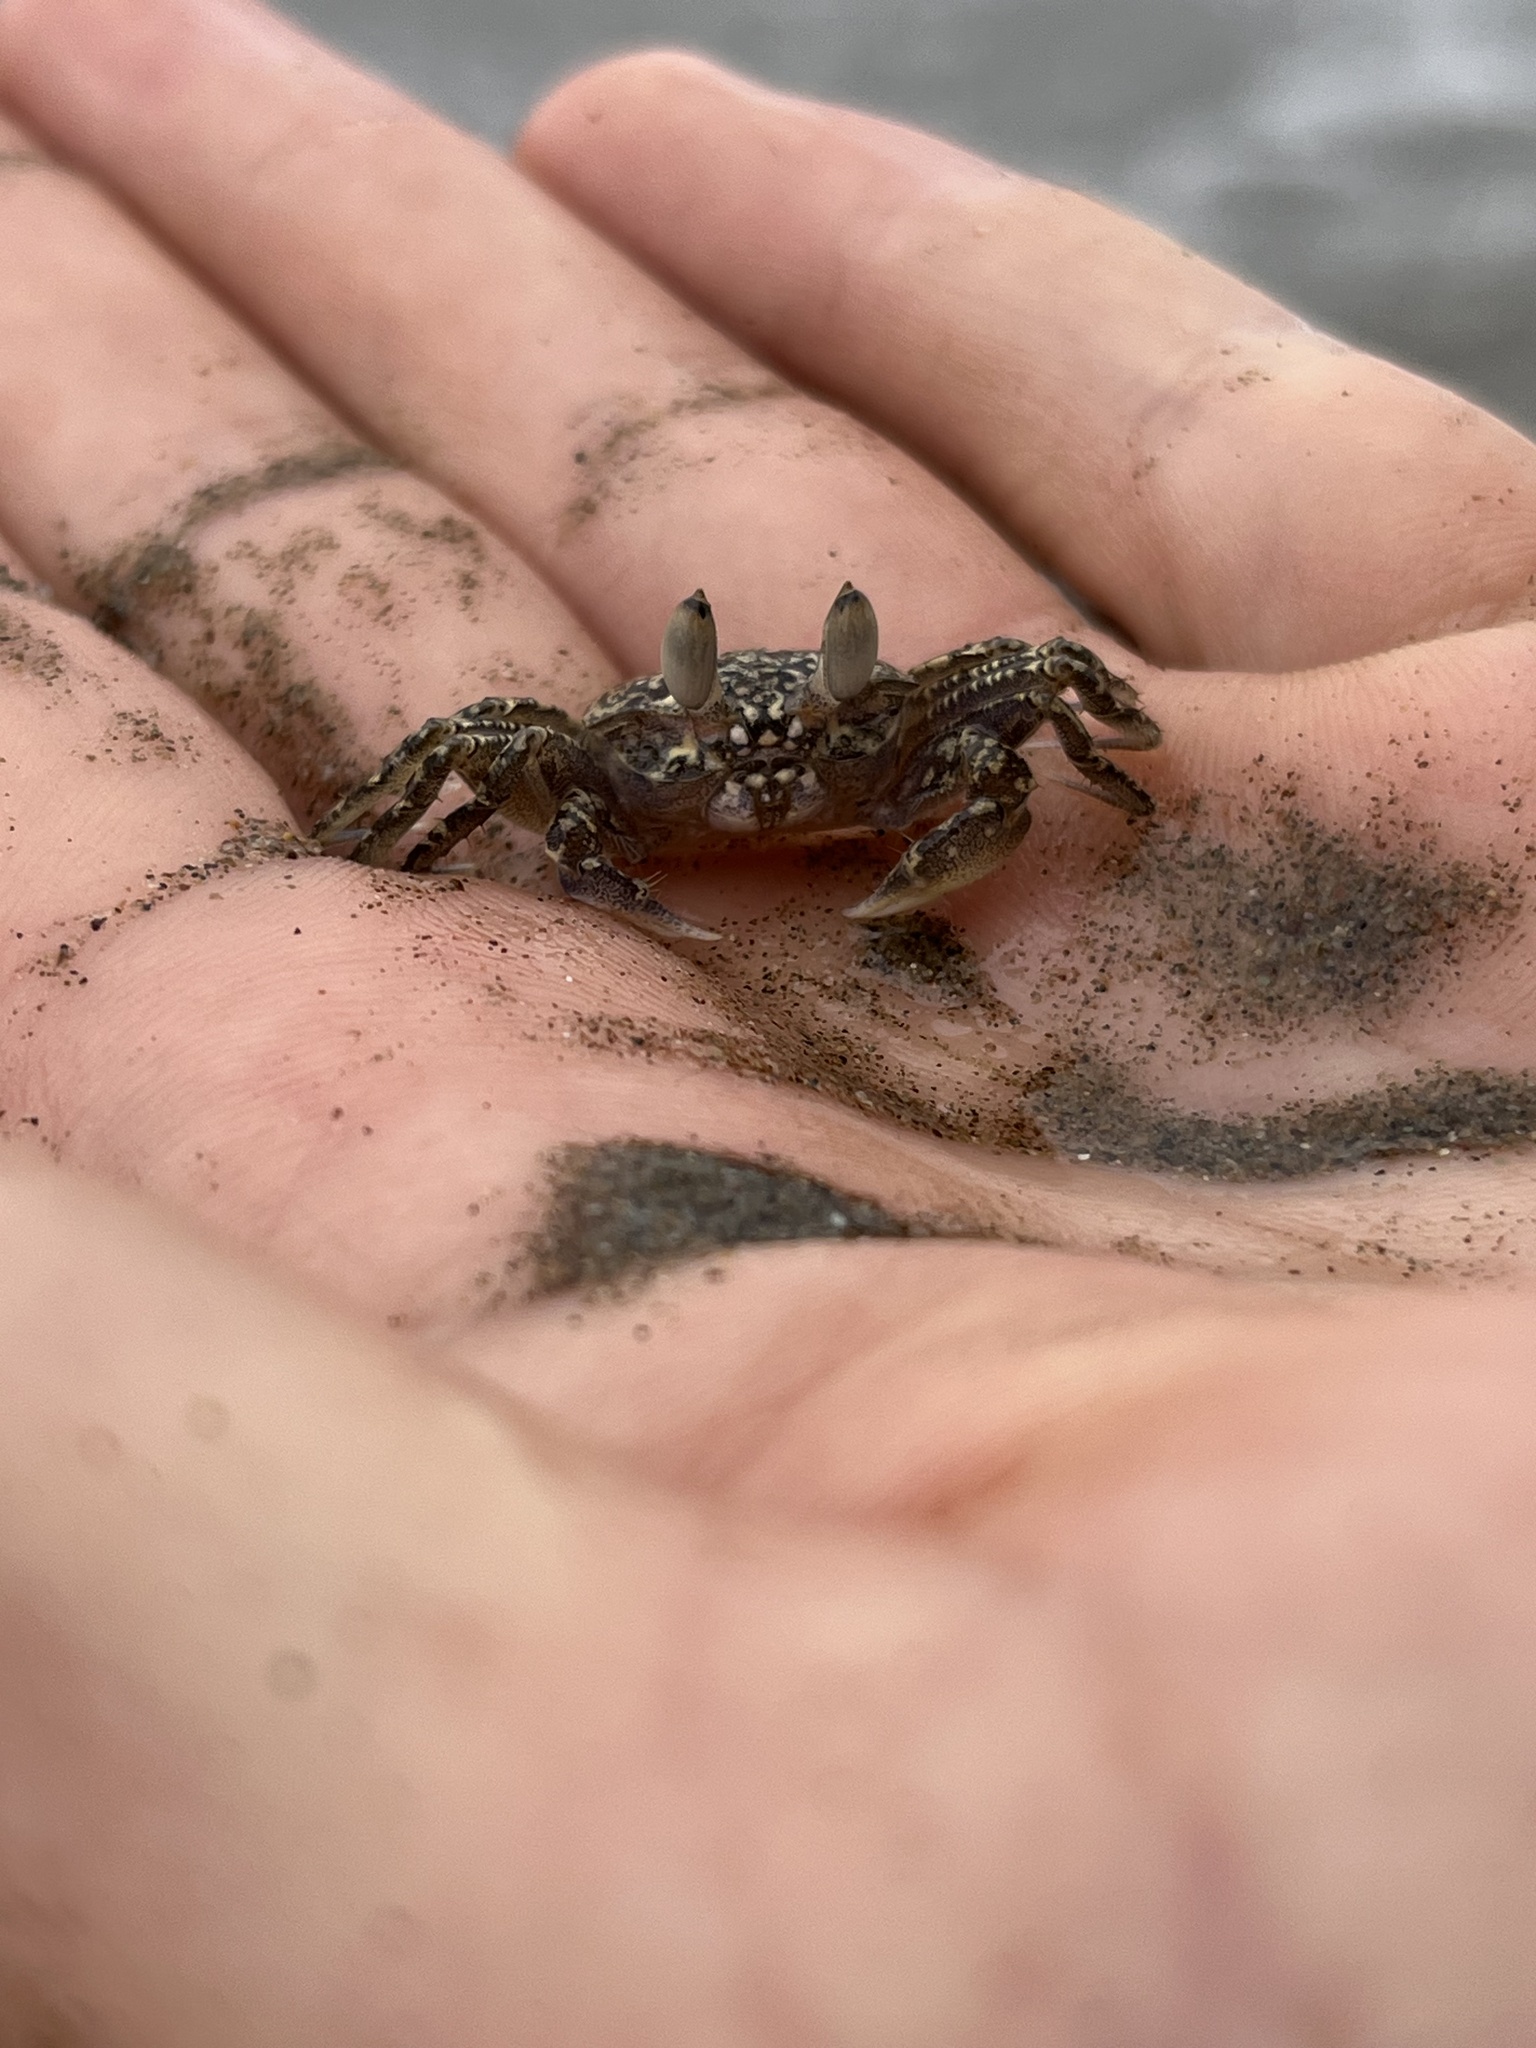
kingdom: Animalia
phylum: Arthropoda
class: Malacostraca
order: Decapoda
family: Ocypodidae
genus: Ocypode
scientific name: Ocypode gaudichaudii
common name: Pacific ghost crab
